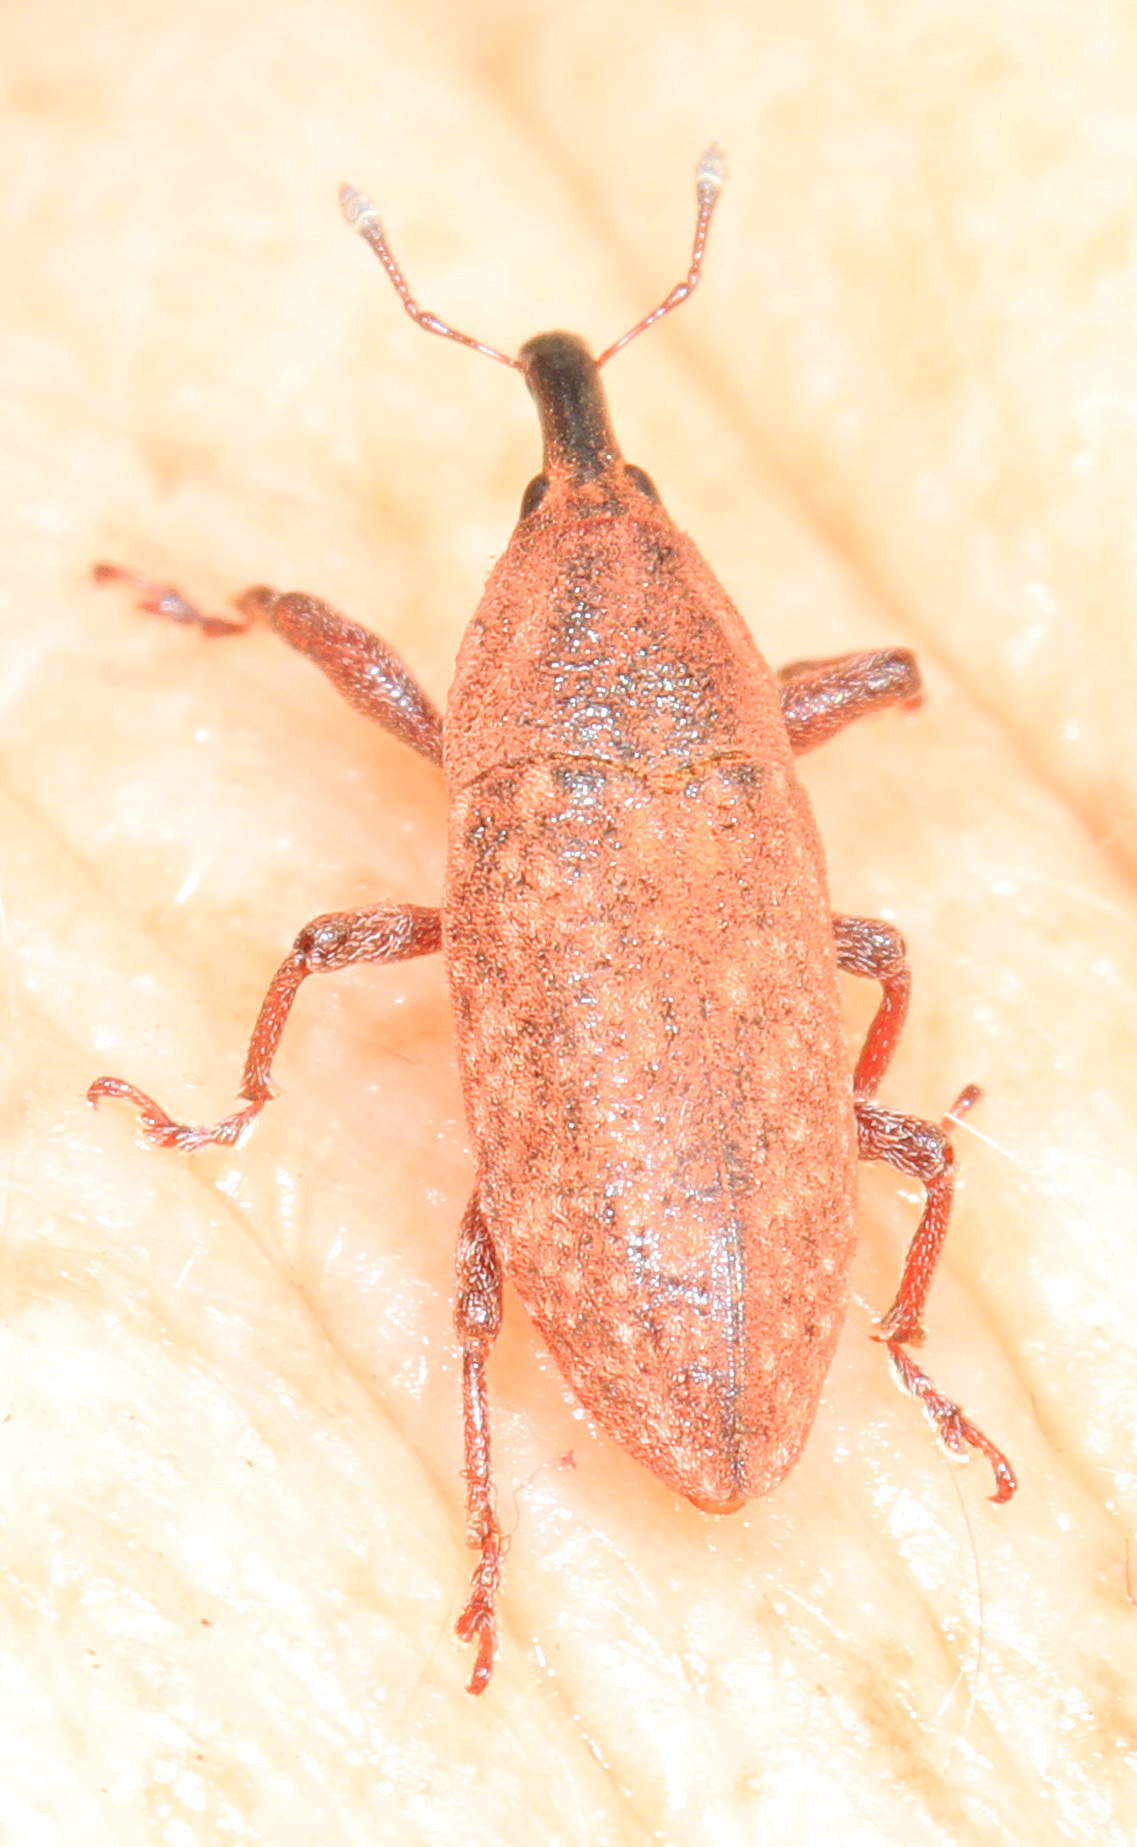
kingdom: Animalia
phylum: Arthropoda
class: Insecta
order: Coleoptera
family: Curculionidae
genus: Lixus
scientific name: Lixus scrobicollis
